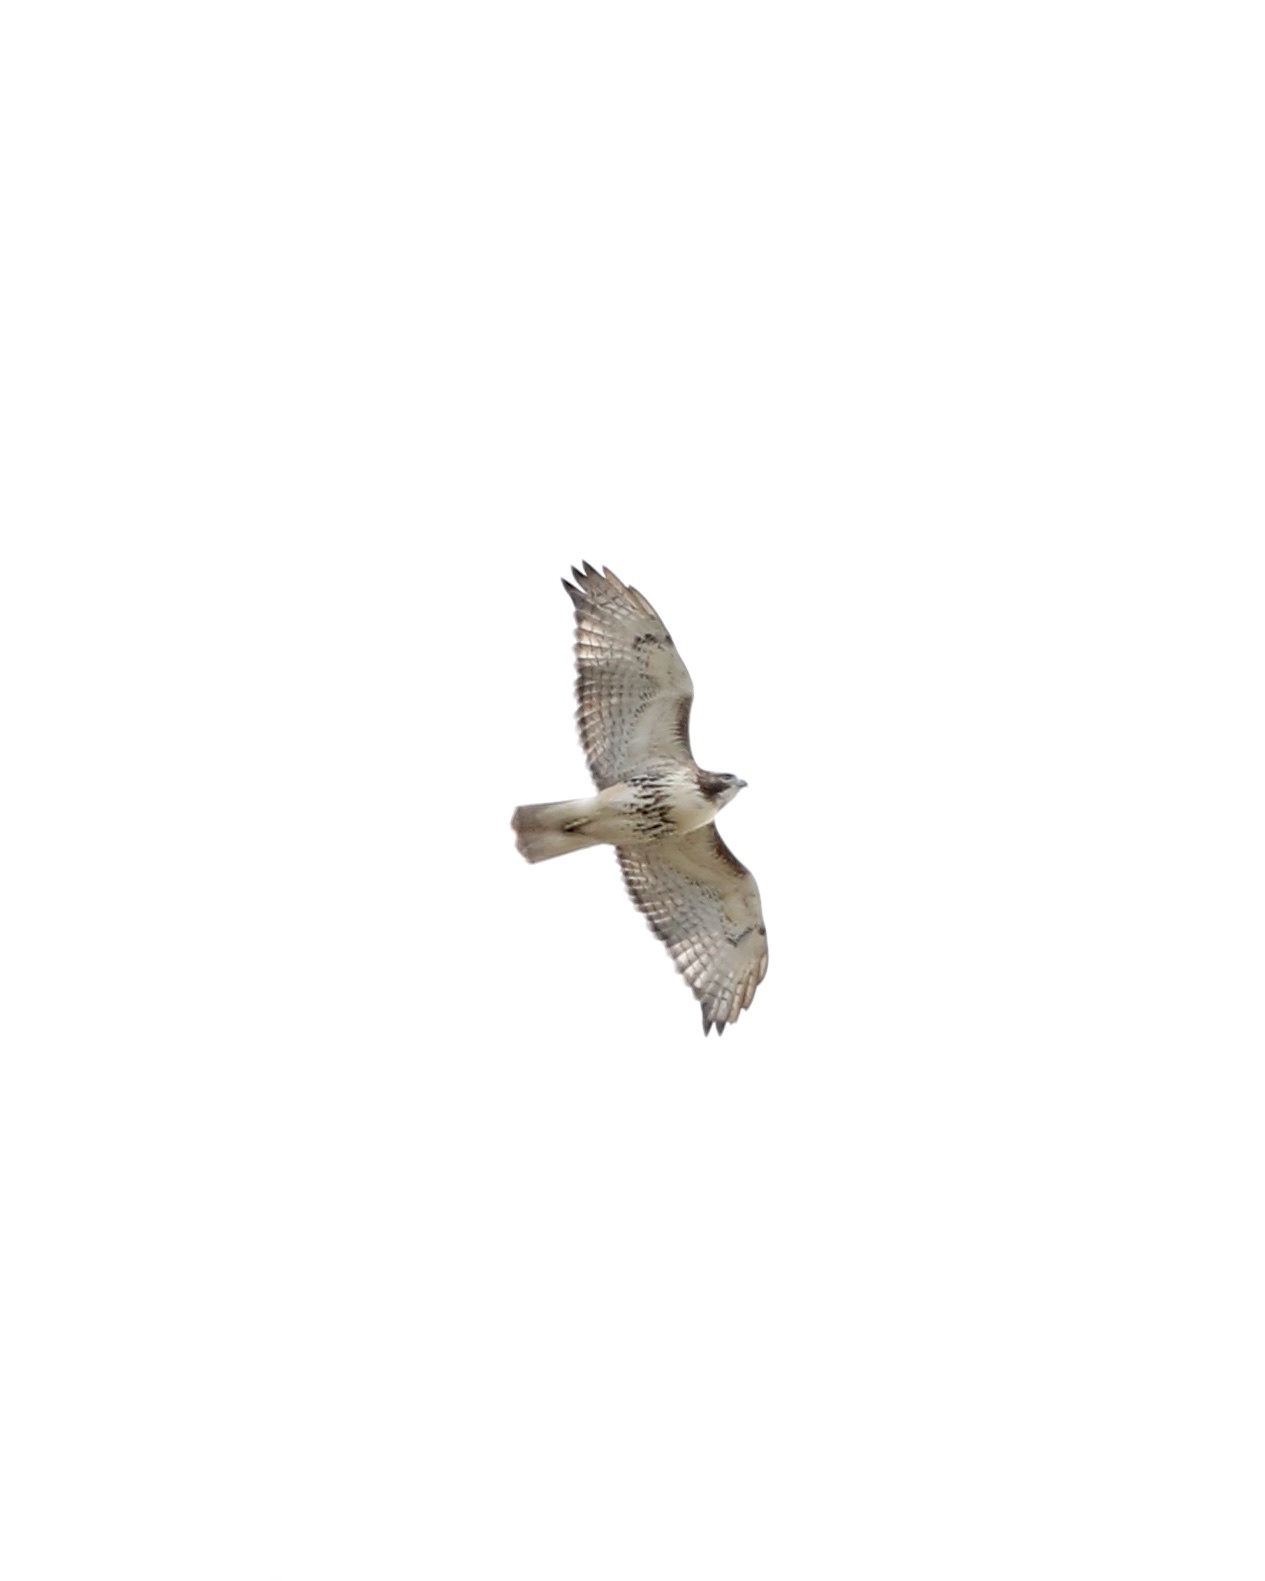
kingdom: Animalia
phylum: Chordata
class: Aves
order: Accipitriformes
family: Accipitridae
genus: Buteo
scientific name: Buteo jamaicensis
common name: Red-tailed hawk
